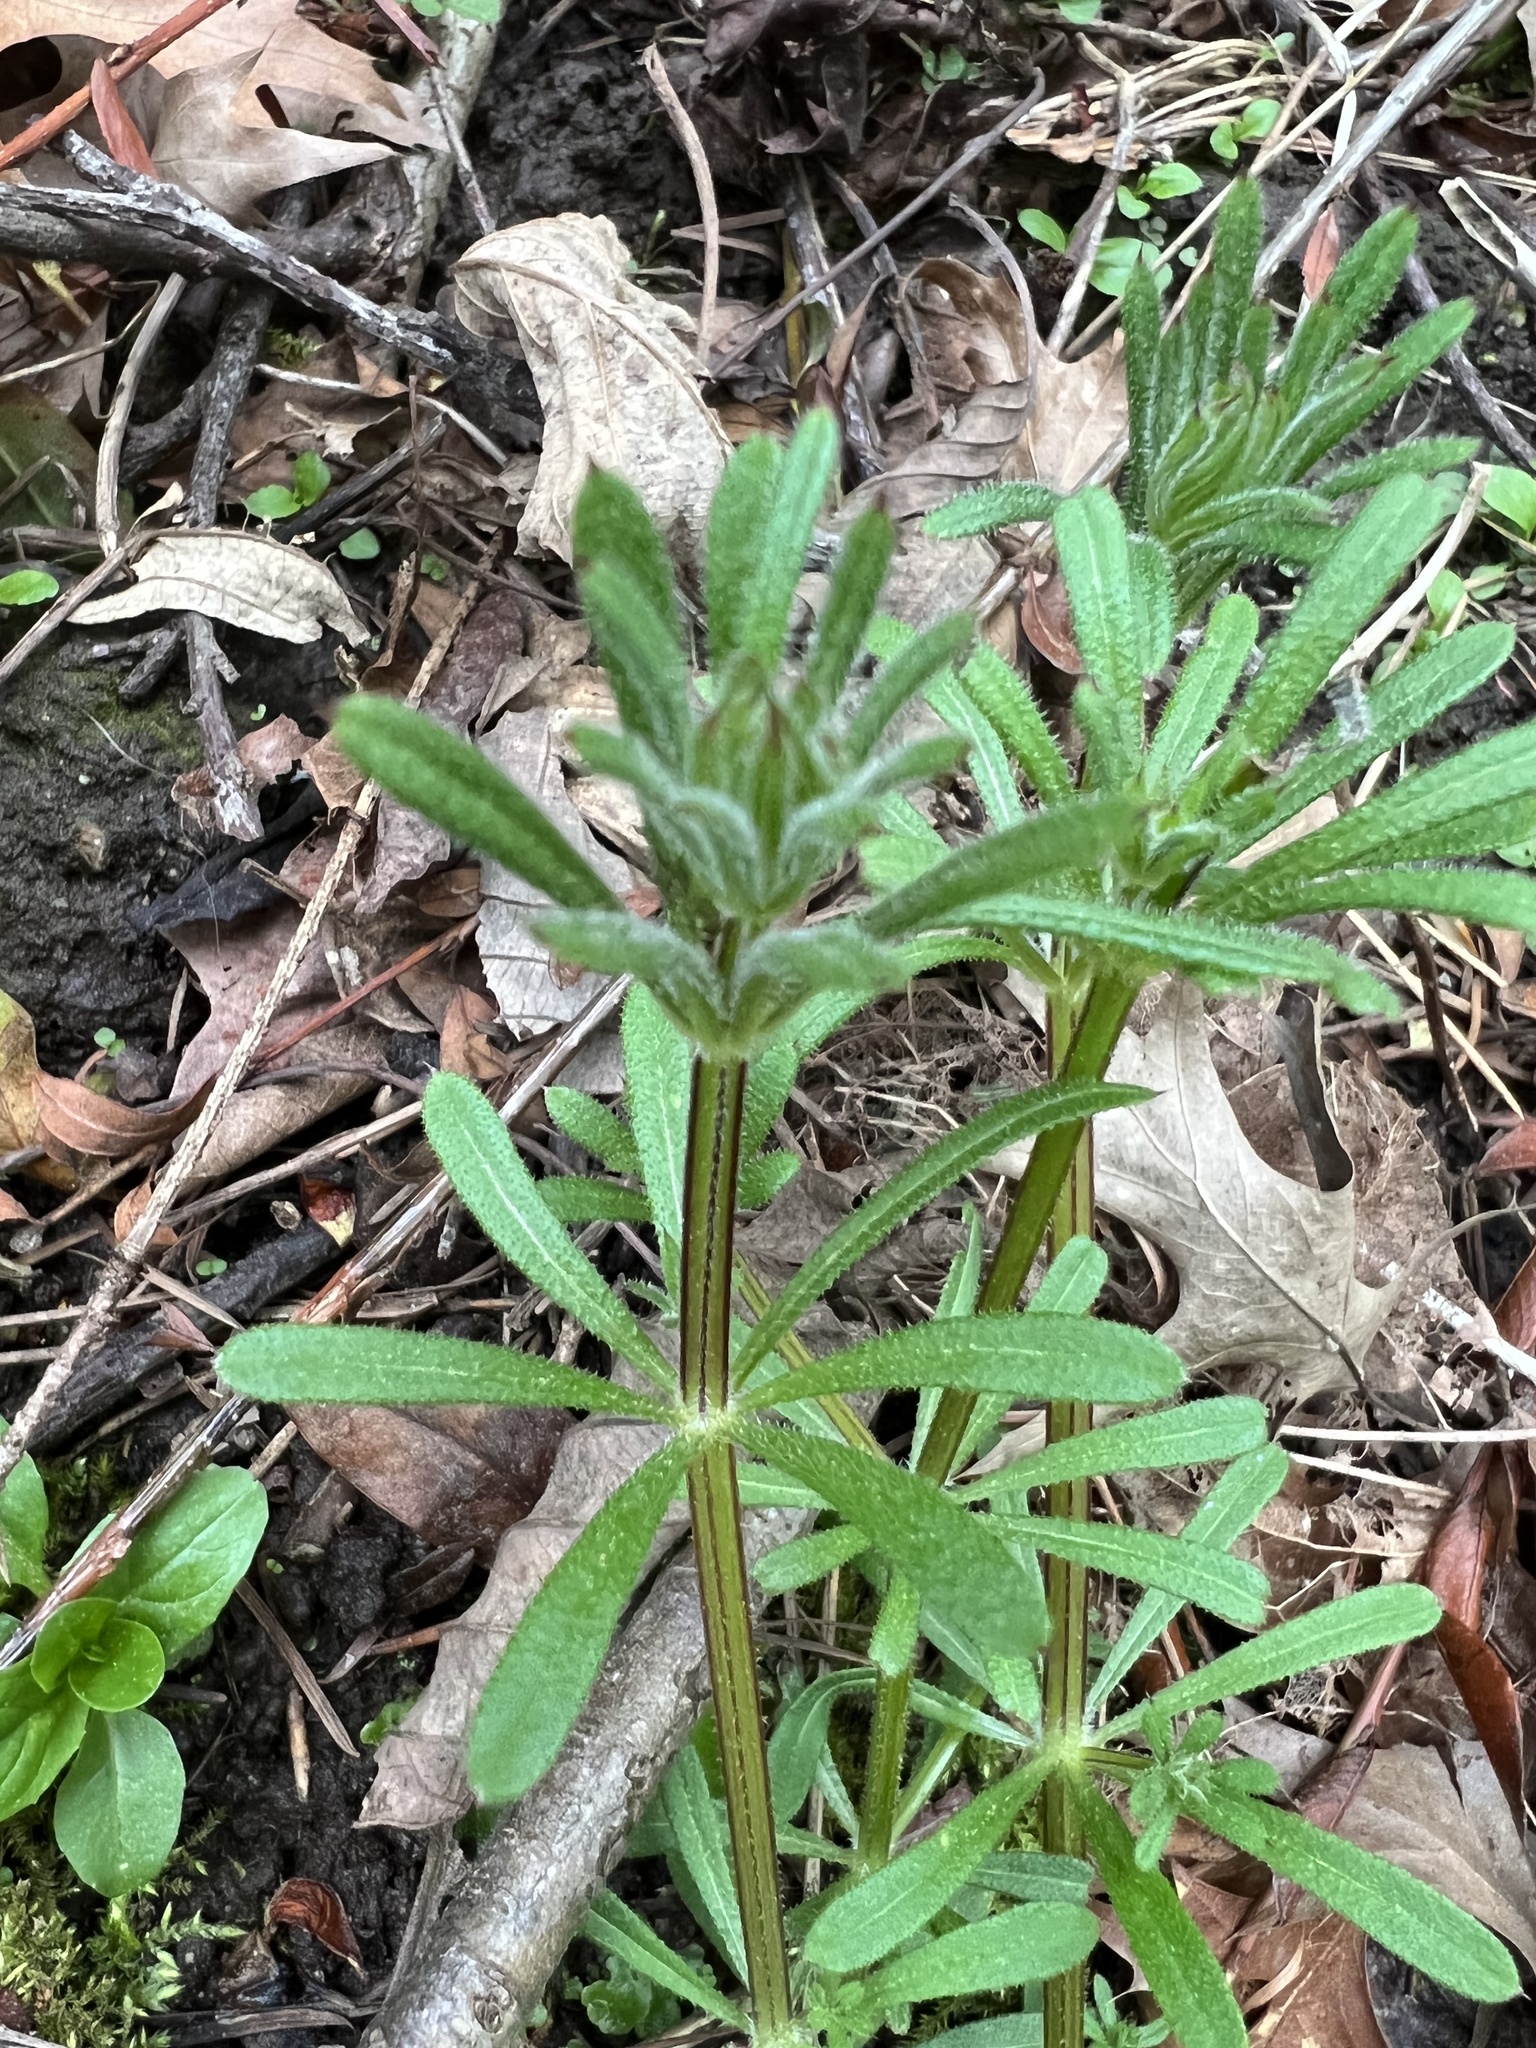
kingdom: Plantae
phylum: Tracheophyta
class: Magnoliopsida
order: Gentianales
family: Rubiaceae
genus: Galium
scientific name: Galium aparine
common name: Cleavers
